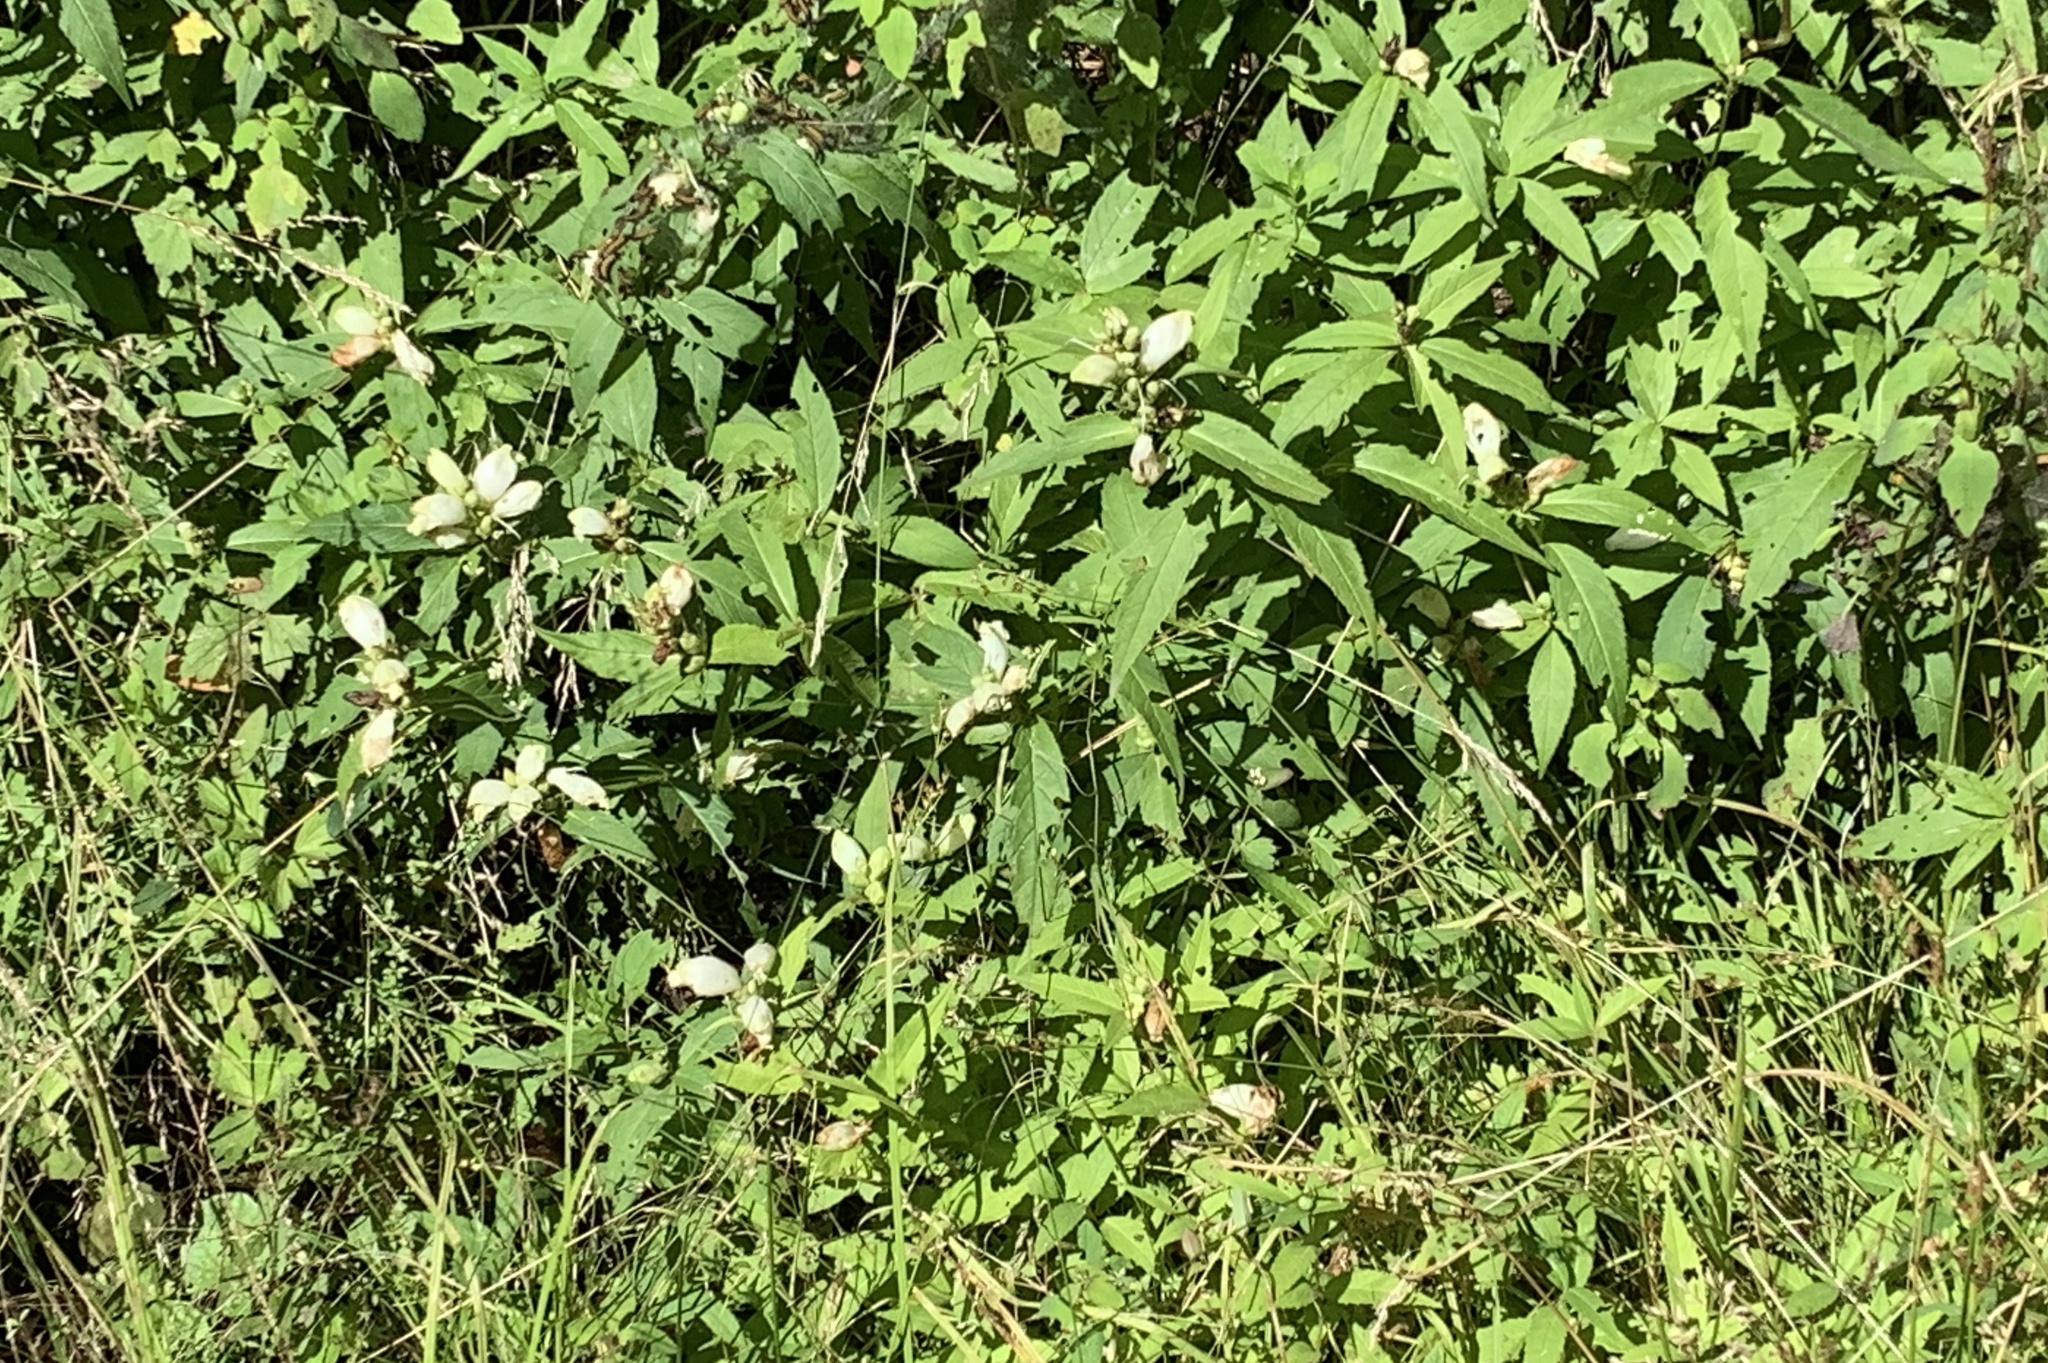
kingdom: Plantae
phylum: Tracheophyta
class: Magnoliopsida
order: Lamiales
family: Plantaginaceae
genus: Chelone
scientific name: Chelone glabra
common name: Snakehead
